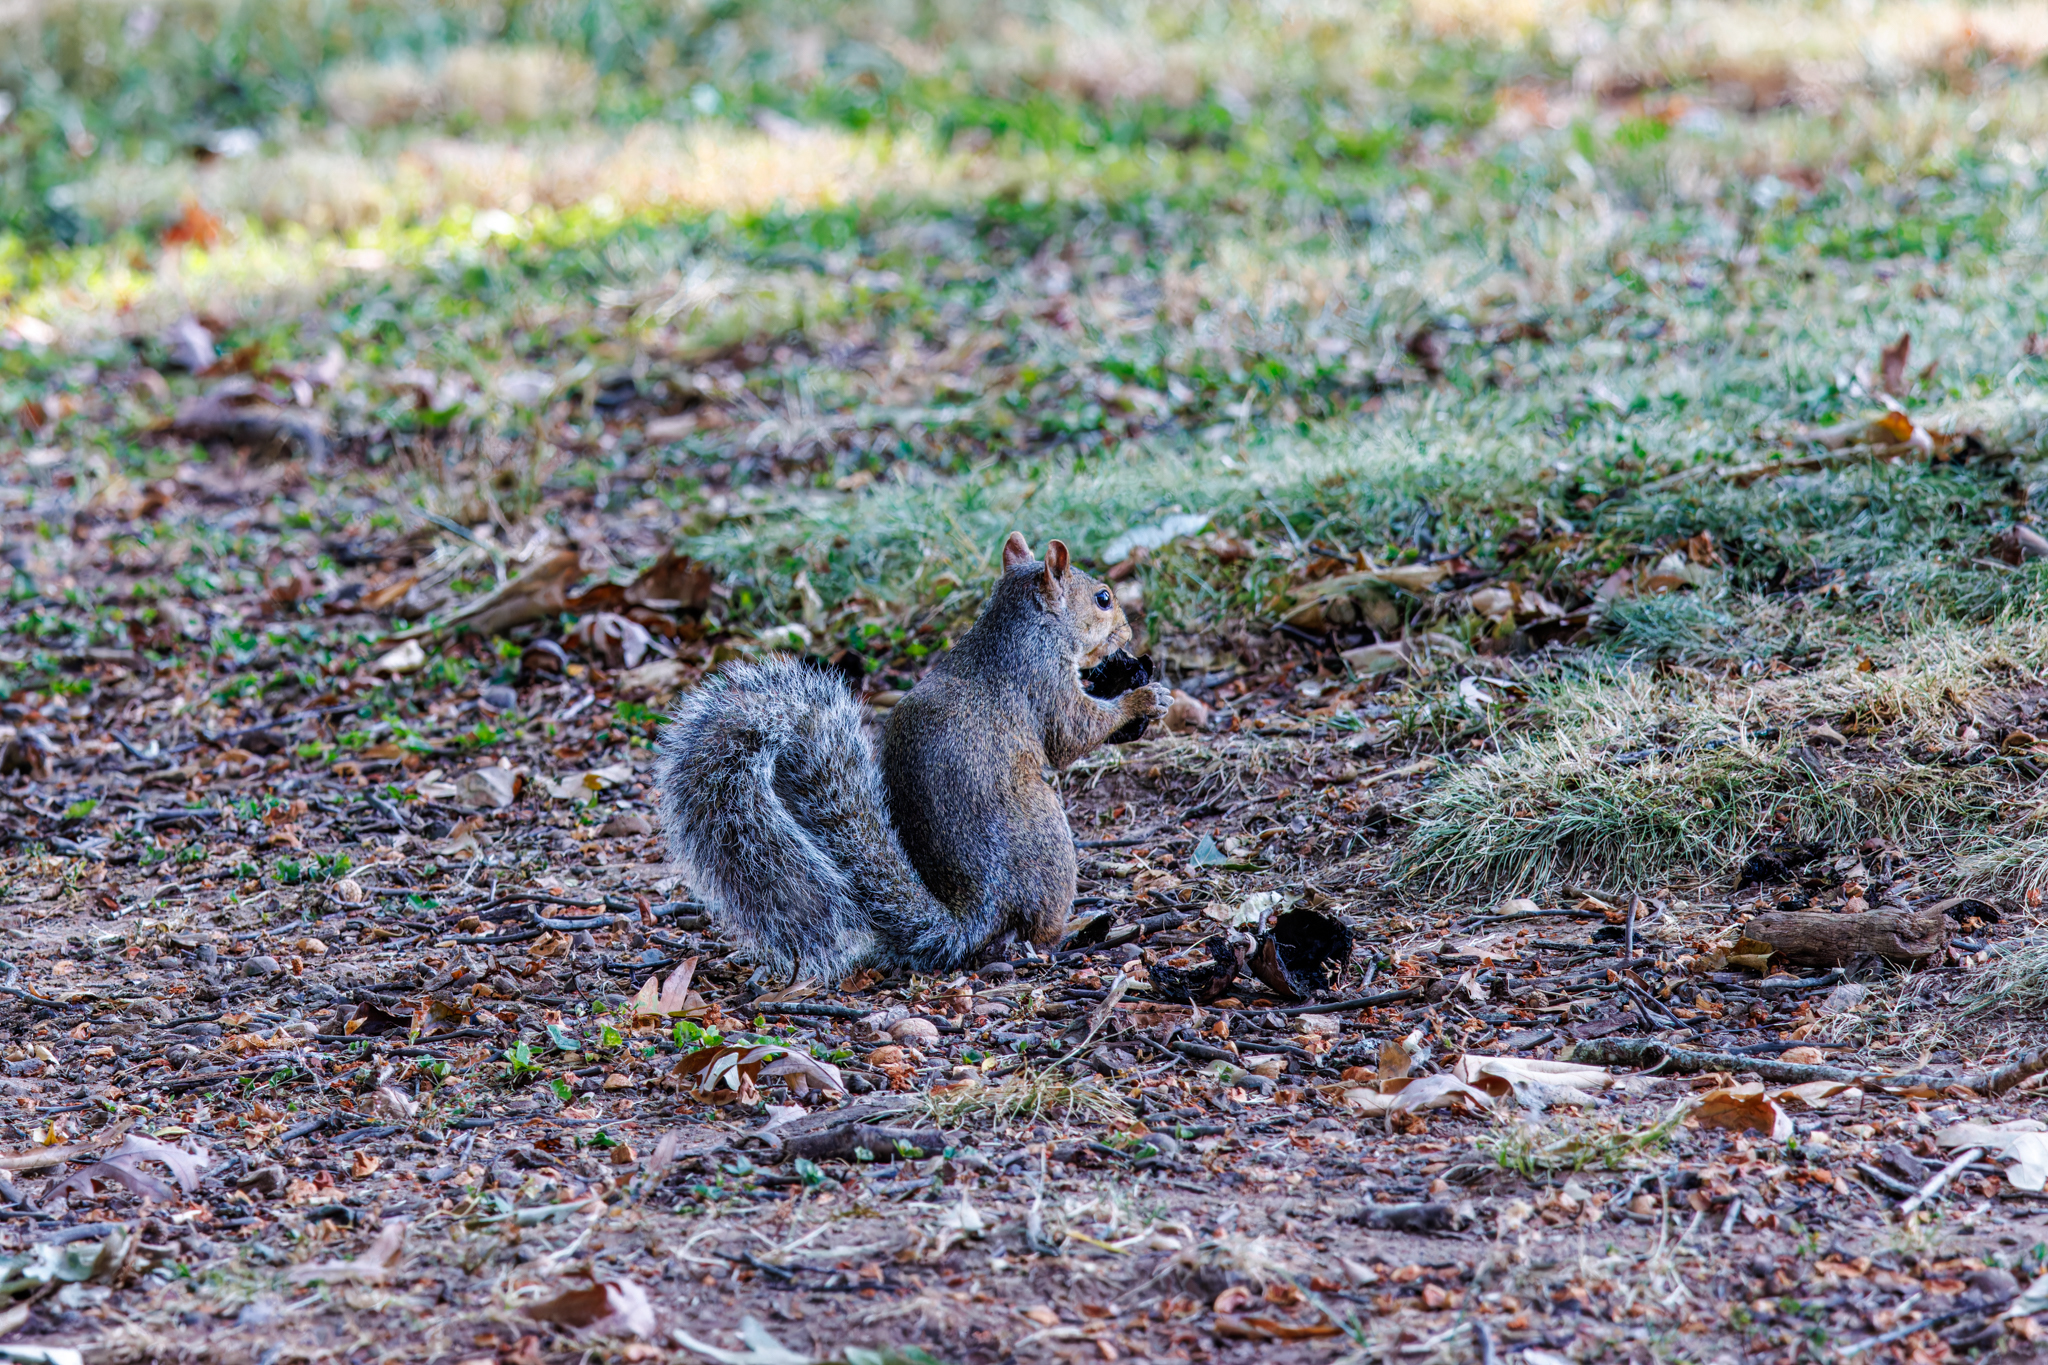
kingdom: Animalia
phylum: Chordata
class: Mammalia
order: Rodentia
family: Sciuridae
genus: Sciurus
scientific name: Sciurus carolinensis
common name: Eastern gray squirrel
